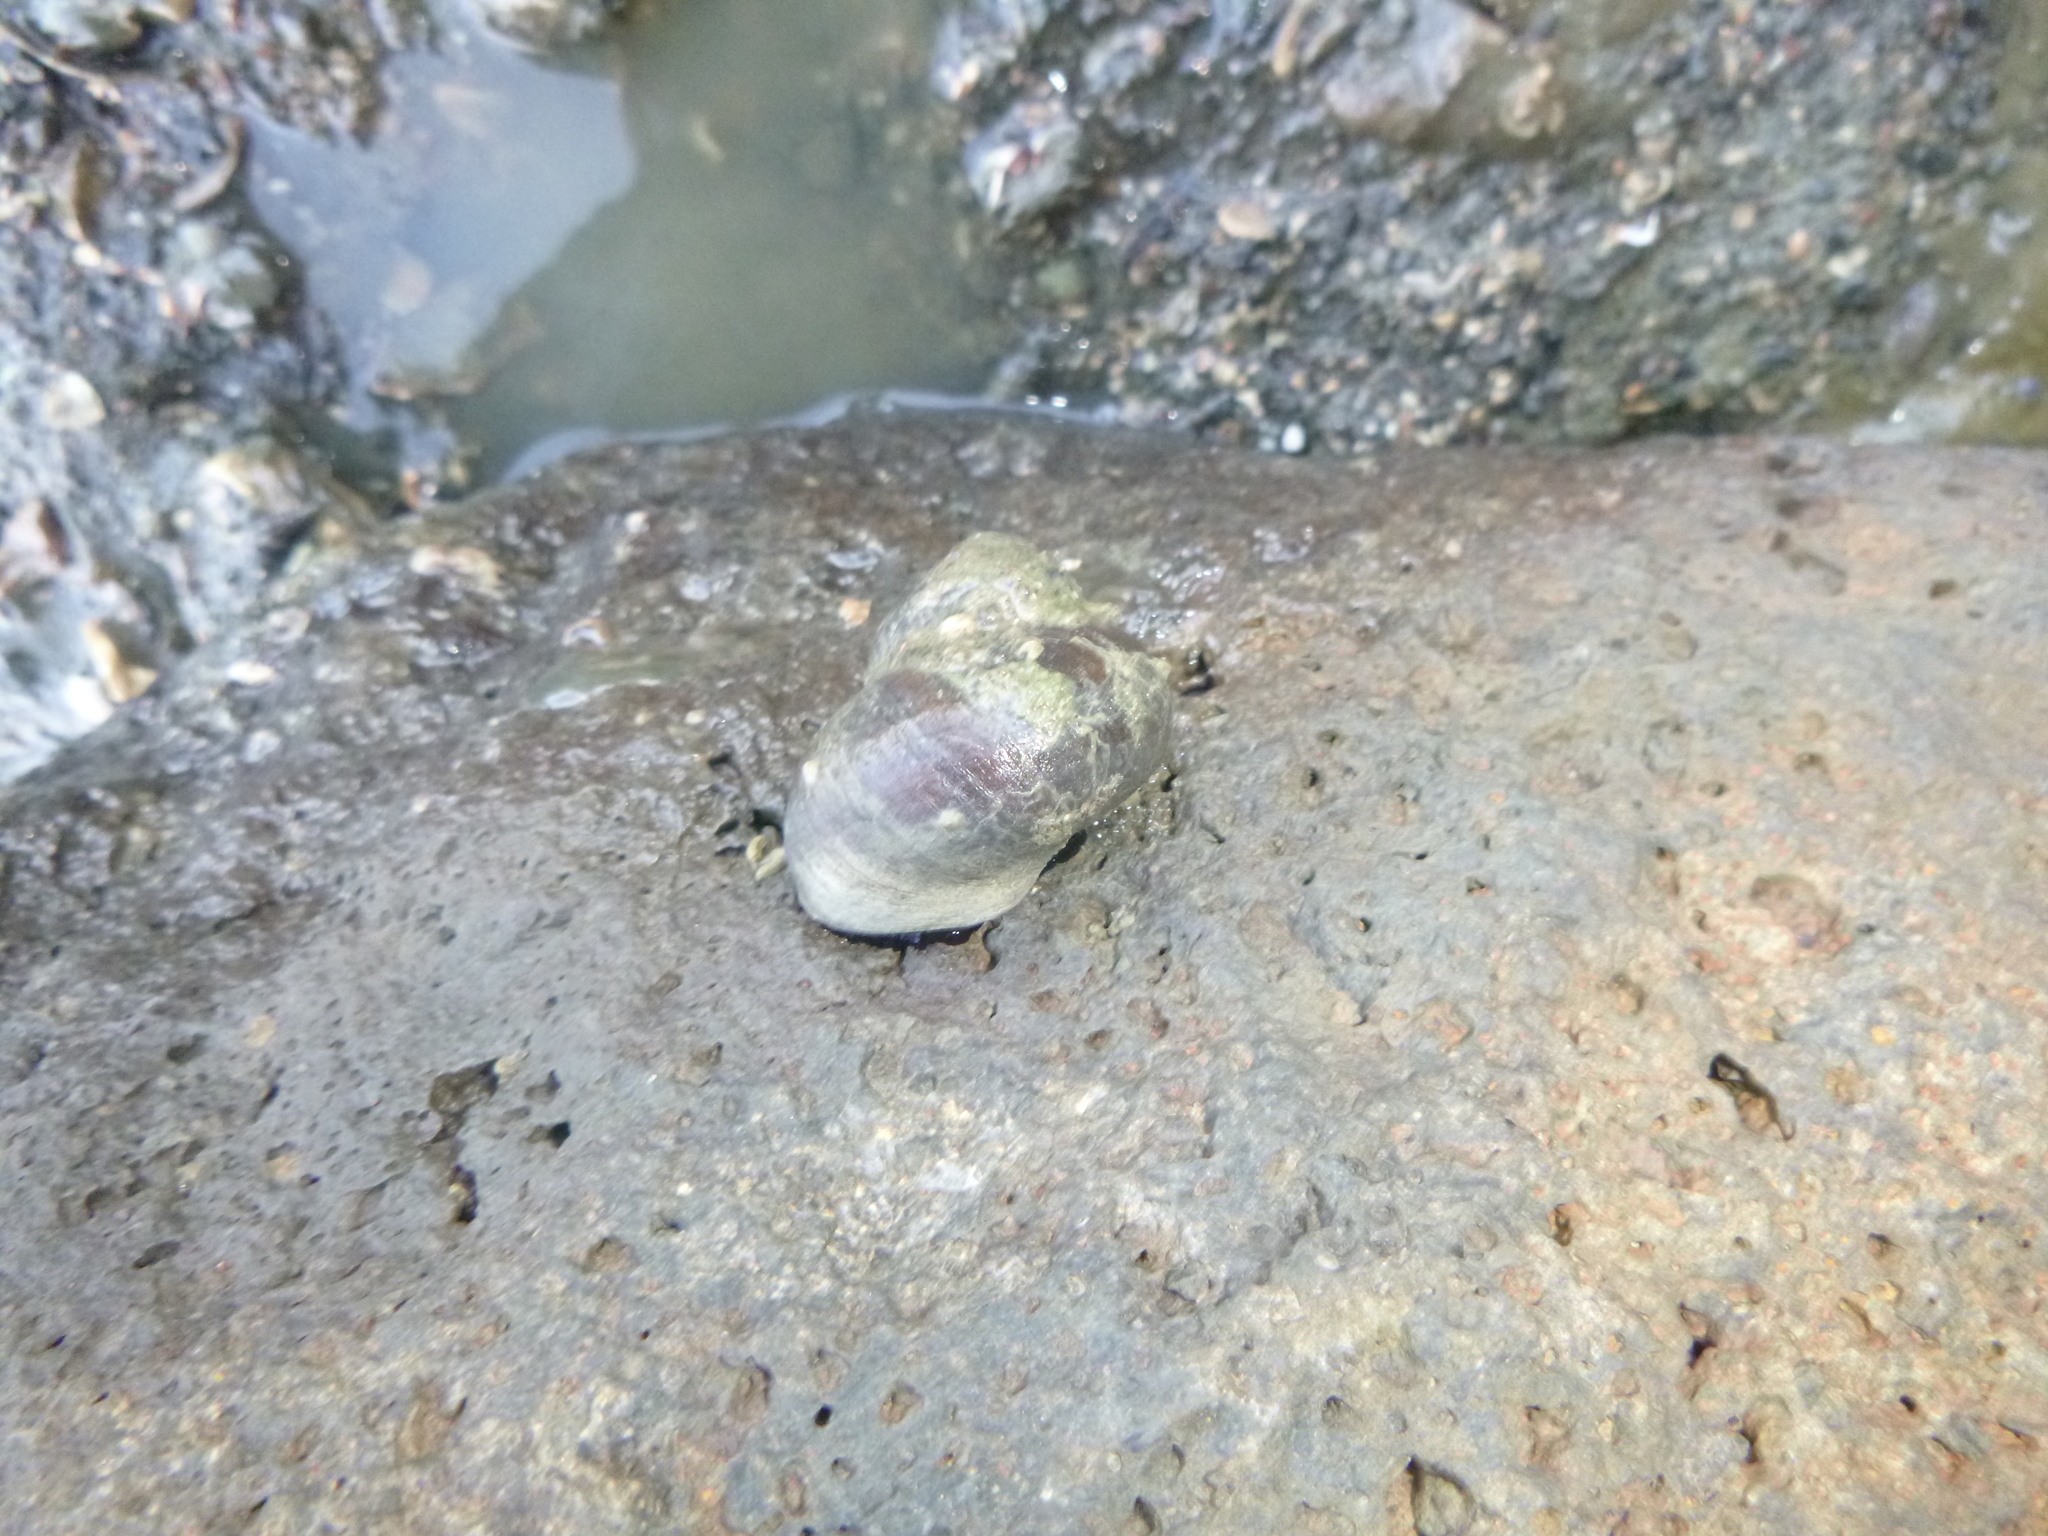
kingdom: Animalia
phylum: Mollusca
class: Gastropoda
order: Trochida
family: Turbinidae
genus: Lunella
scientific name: Lunella smaragda
